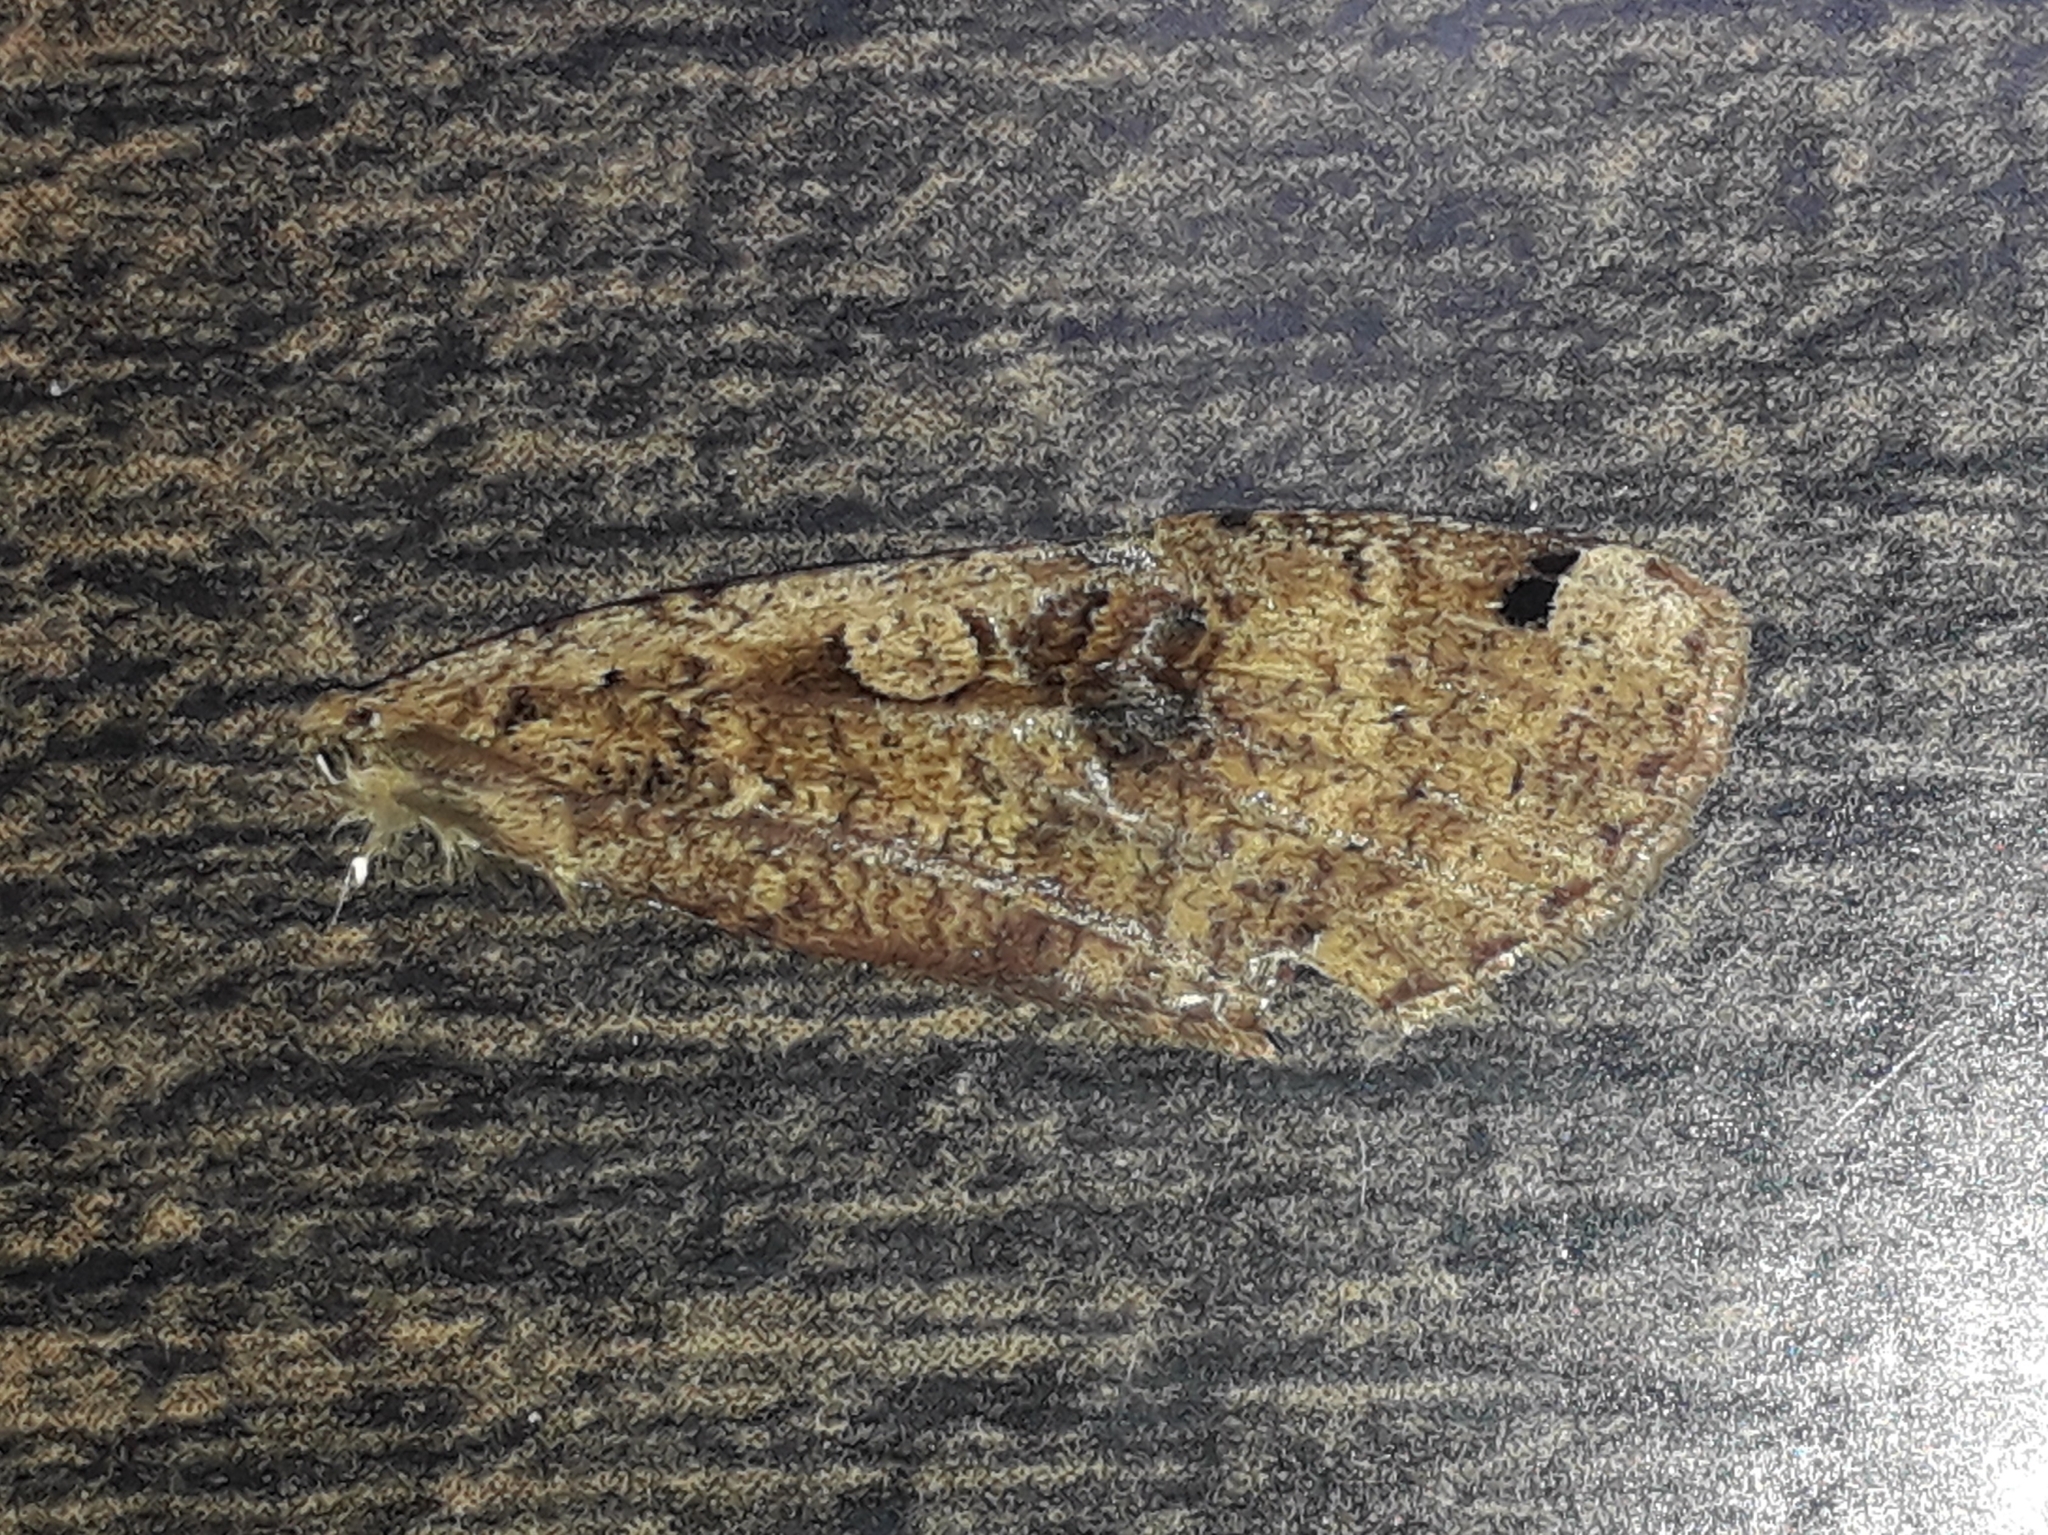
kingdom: Animalia
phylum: Arthropoda
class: Insecta
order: Lepidoptera
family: Noctuidae
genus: Noctua
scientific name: Noctua pronuba
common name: Large yellow underwing
